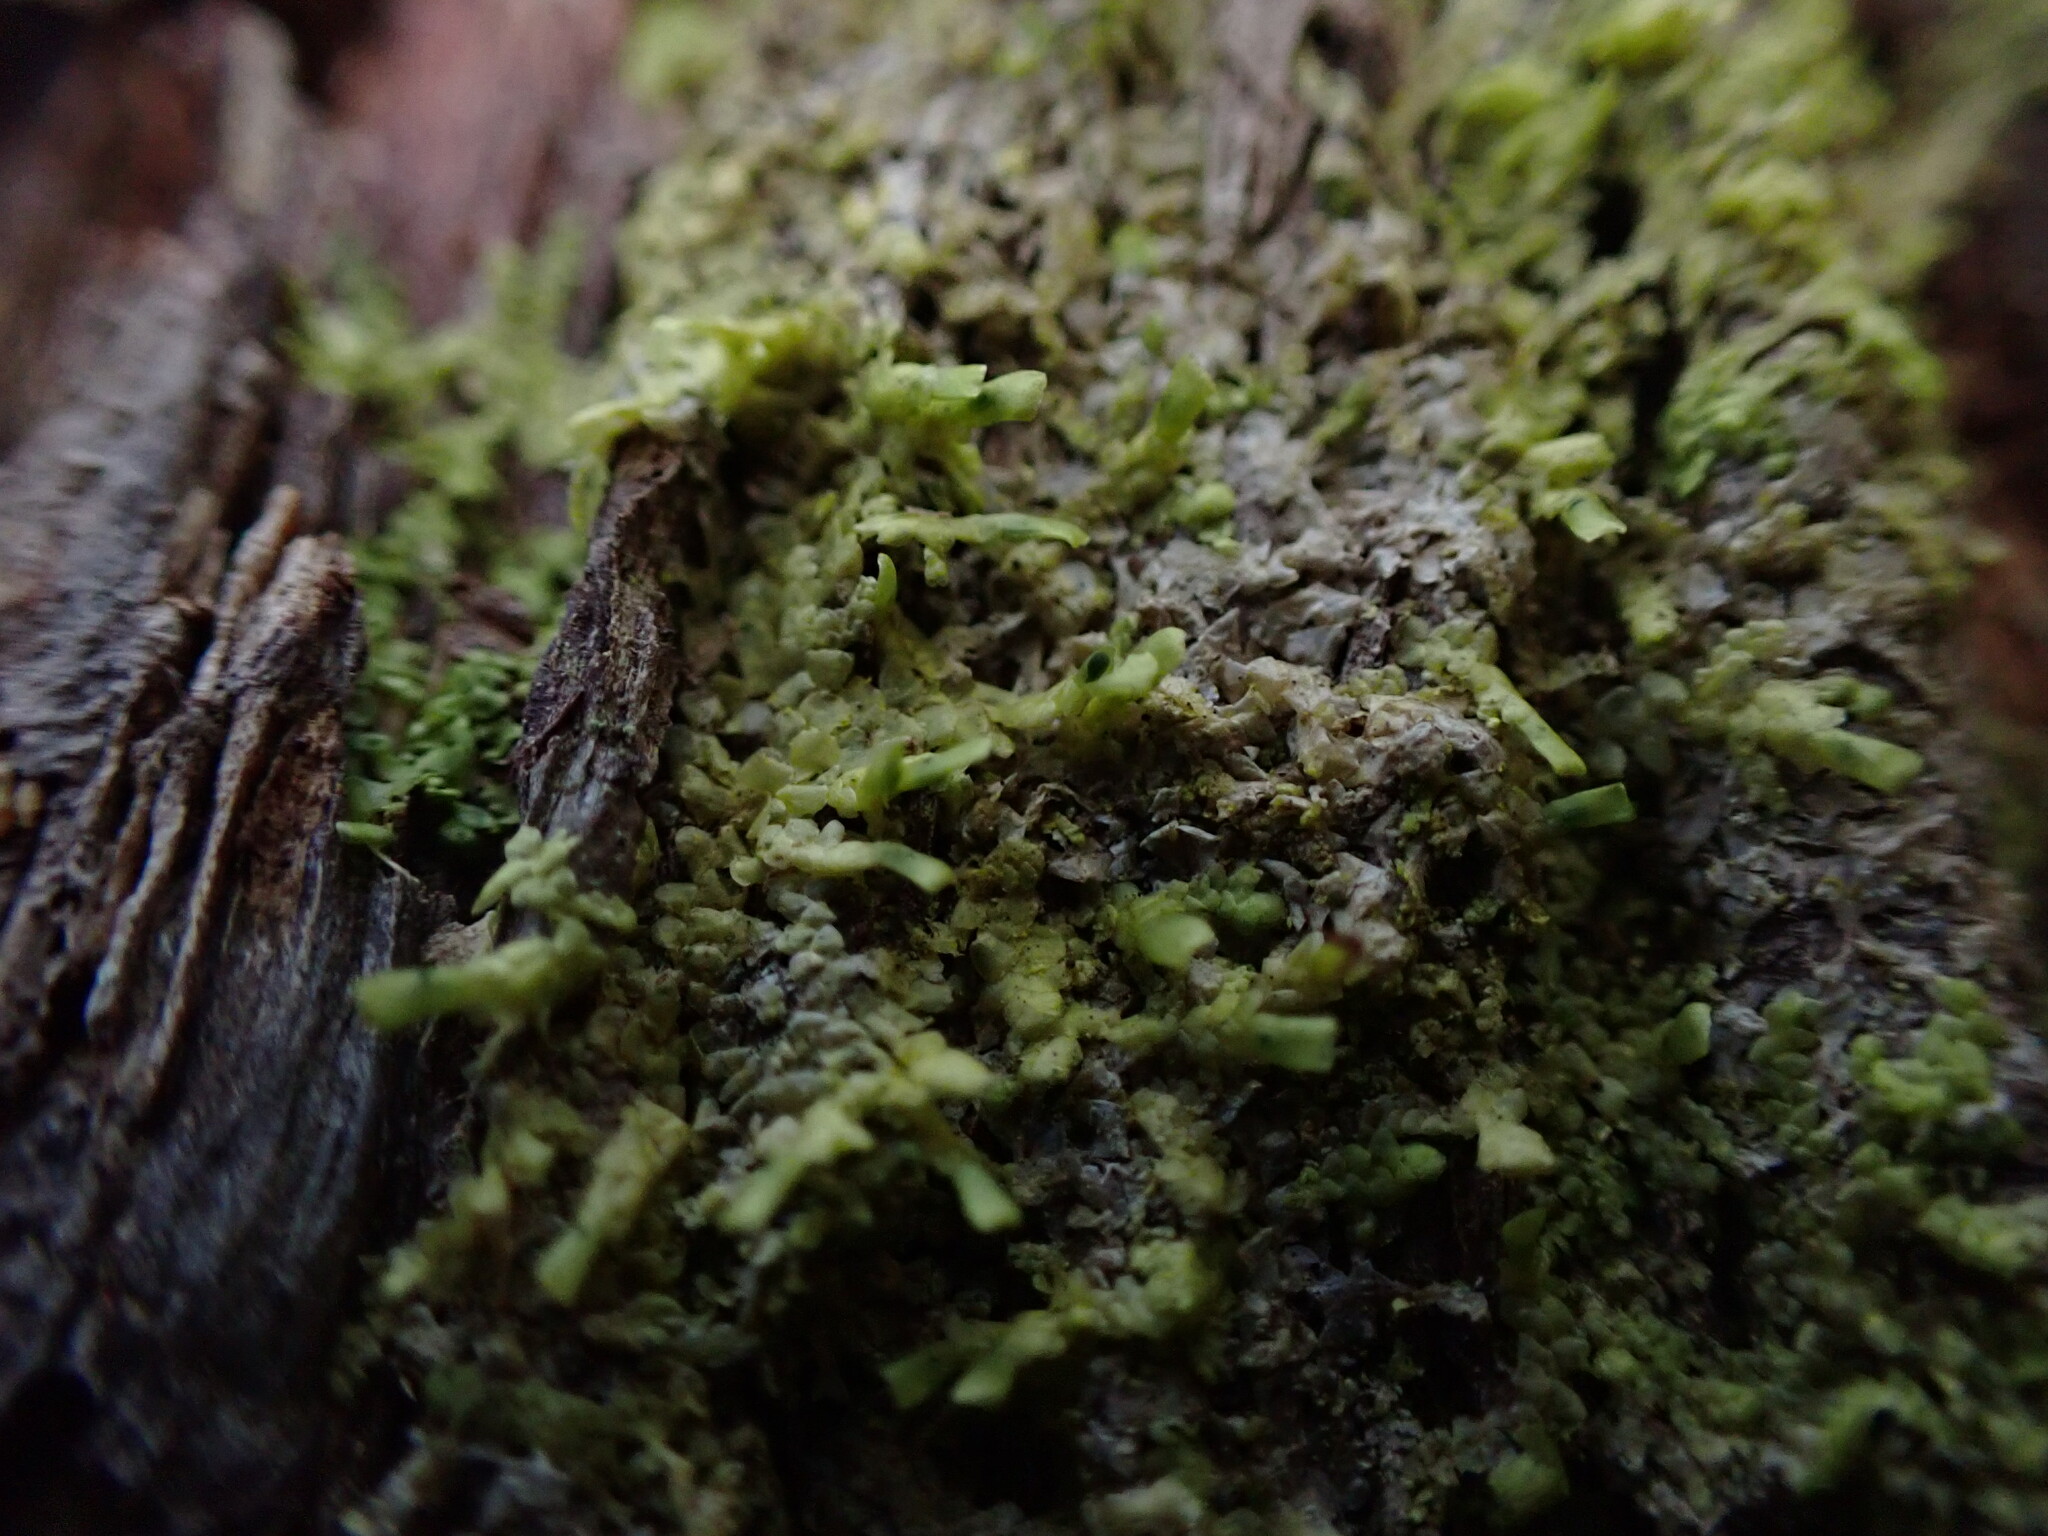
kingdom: Plantae
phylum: Marchantiophyta
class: Jungermanniopsida
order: Porellales
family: Radulaceae
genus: Radula
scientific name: Radula complanata
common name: Flat-leaved scalewort
